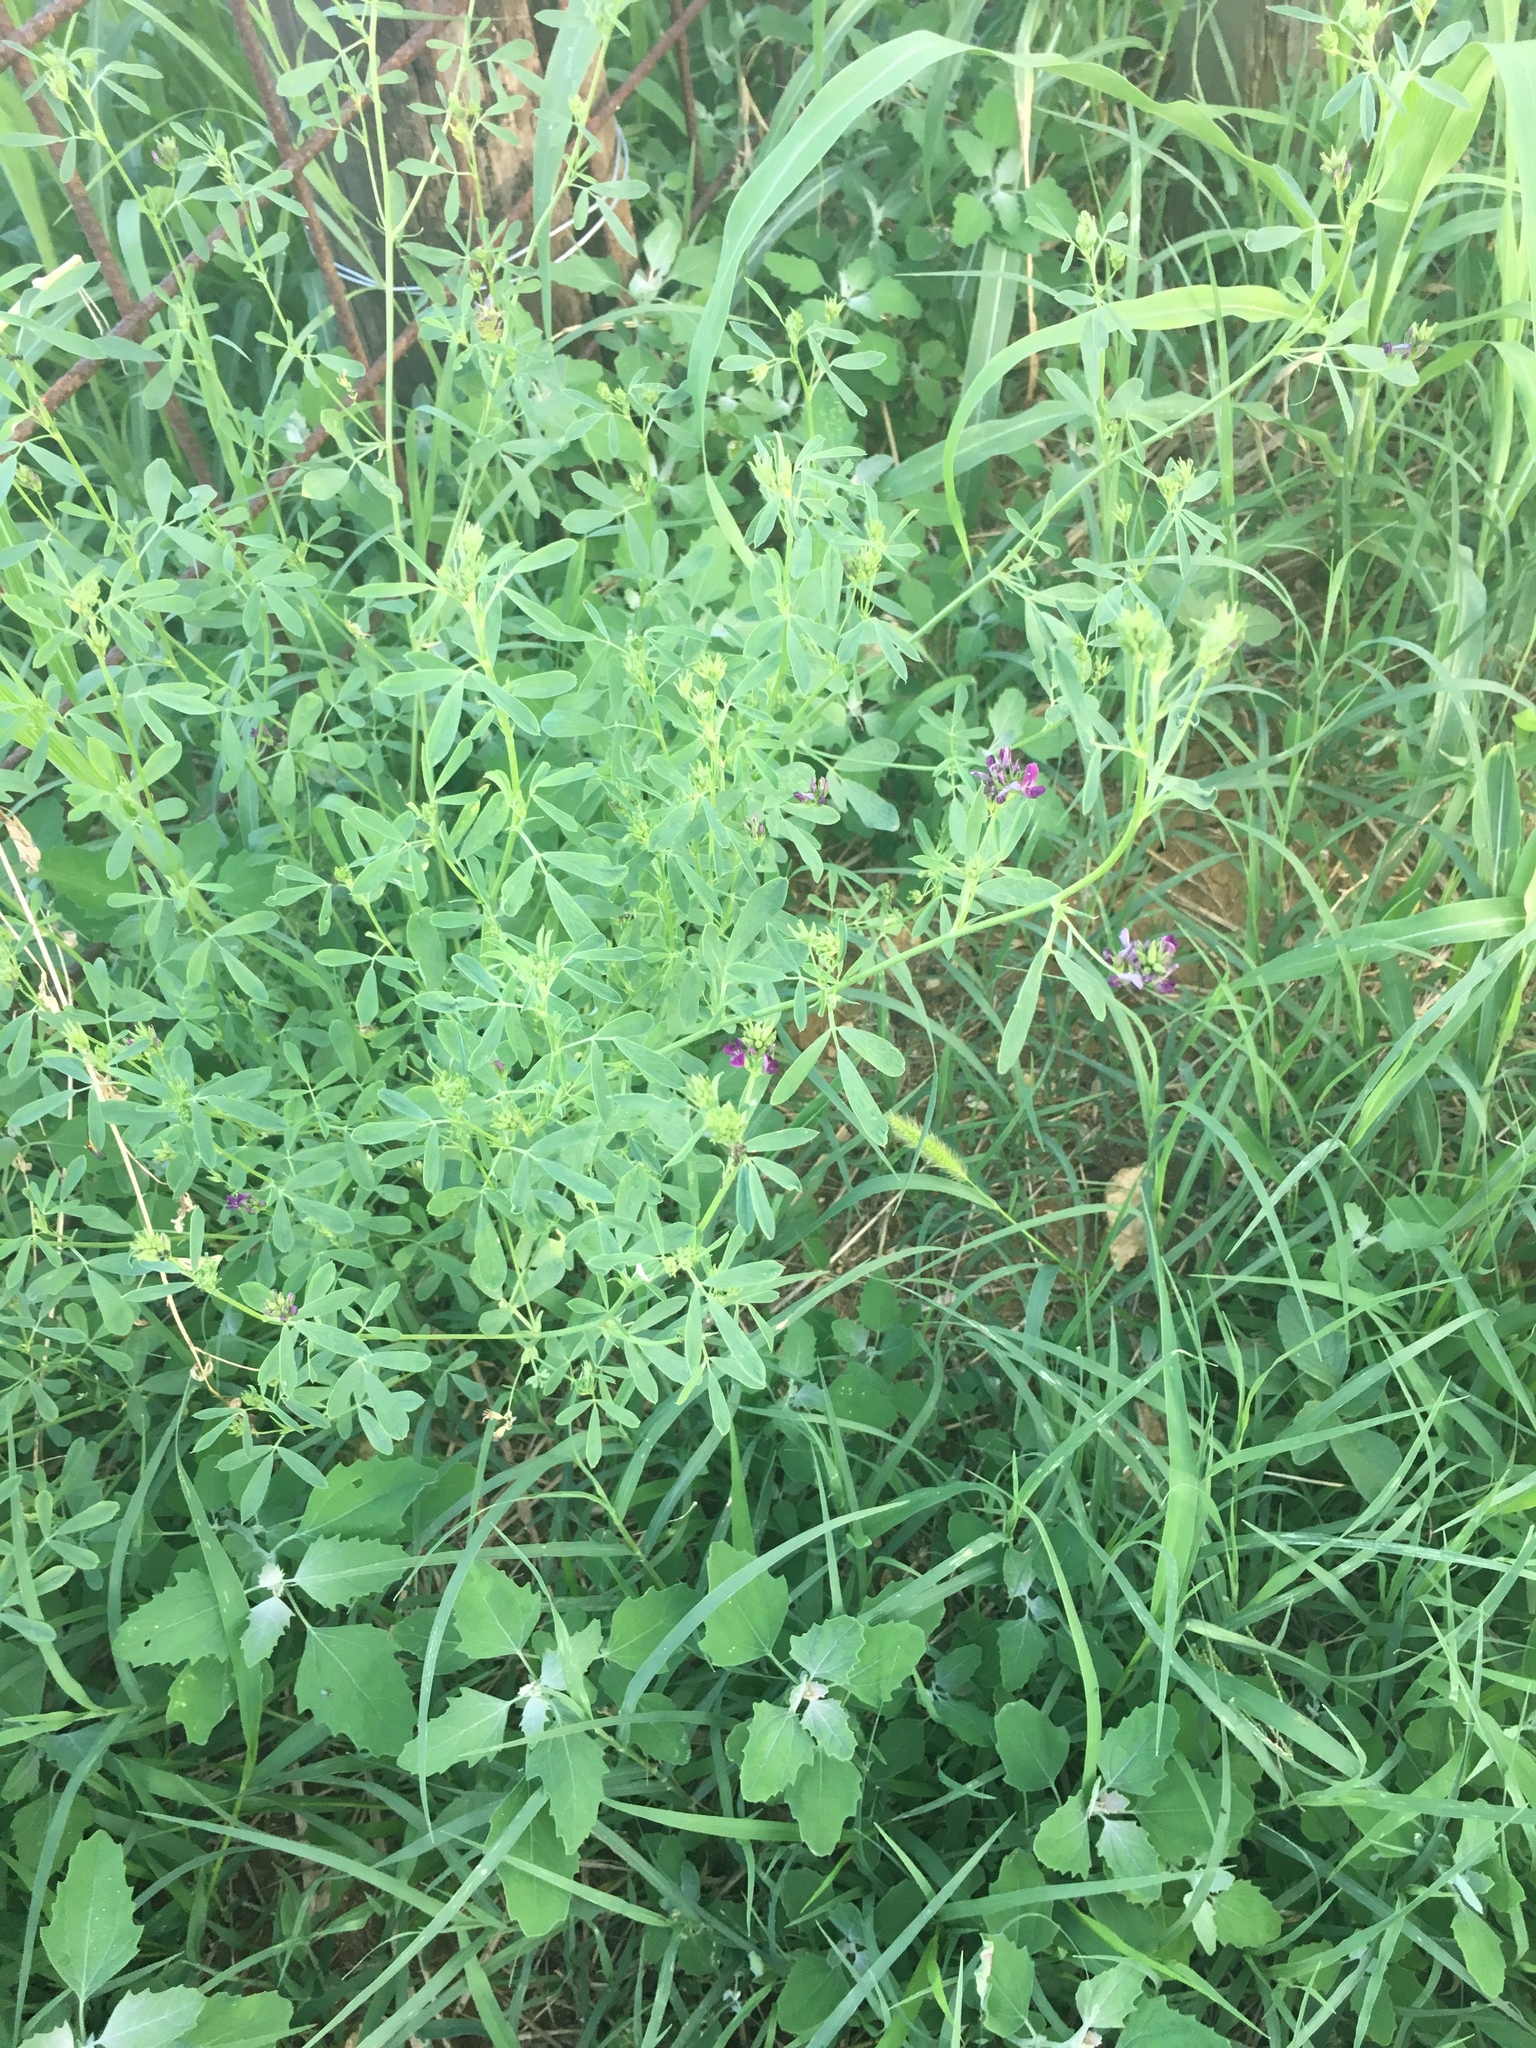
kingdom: Plantae
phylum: Tracheophyta
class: Magnoliopsida
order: Fabales
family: Fabaceae
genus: Medicago
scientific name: Medicago sativa
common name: Alfalfa
